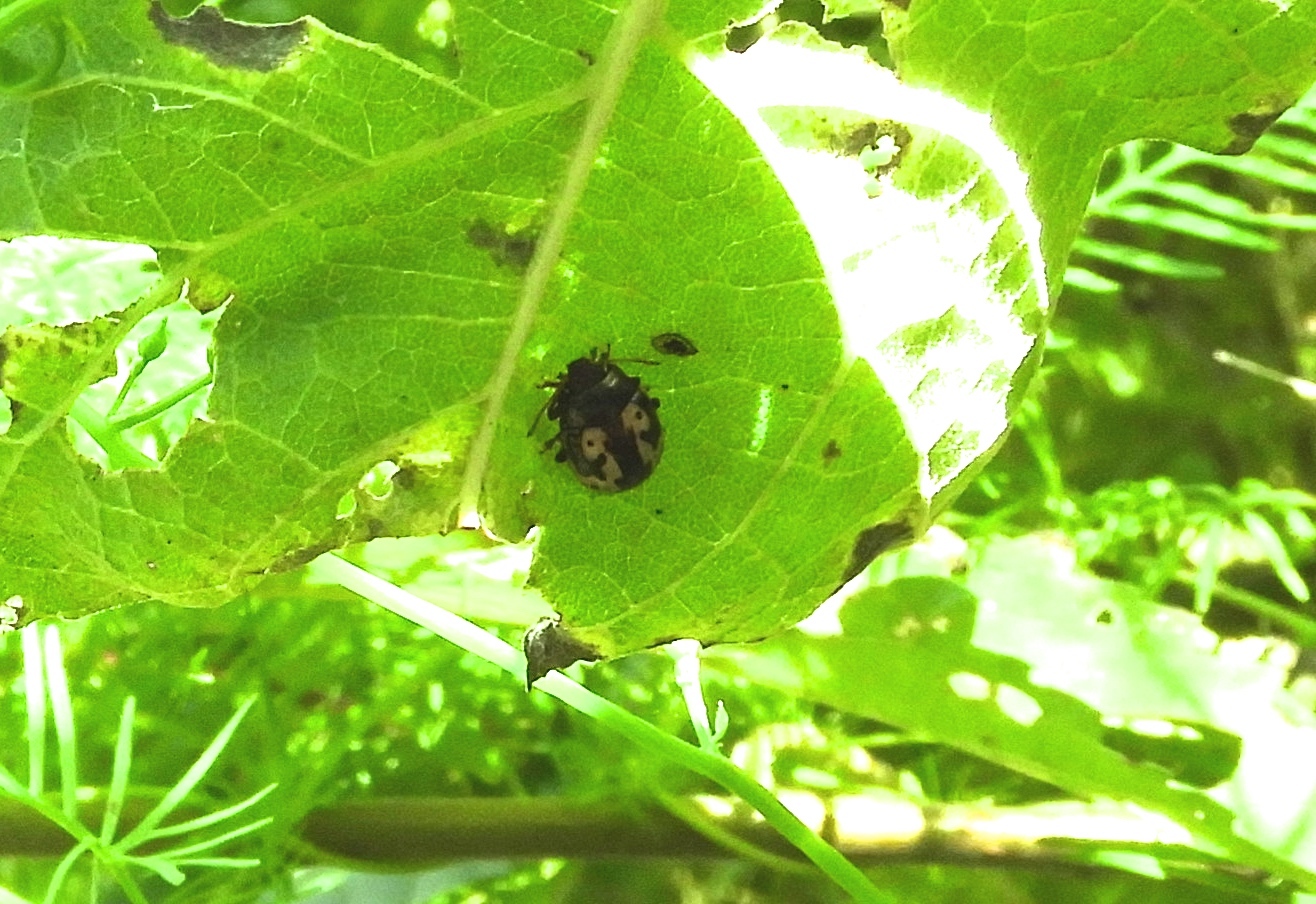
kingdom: Animalia
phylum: Arthropoda
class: Insecta
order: Coleoptera
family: Chrysomelidae
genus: Calligrapha
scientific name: Calligrapha intermedia
